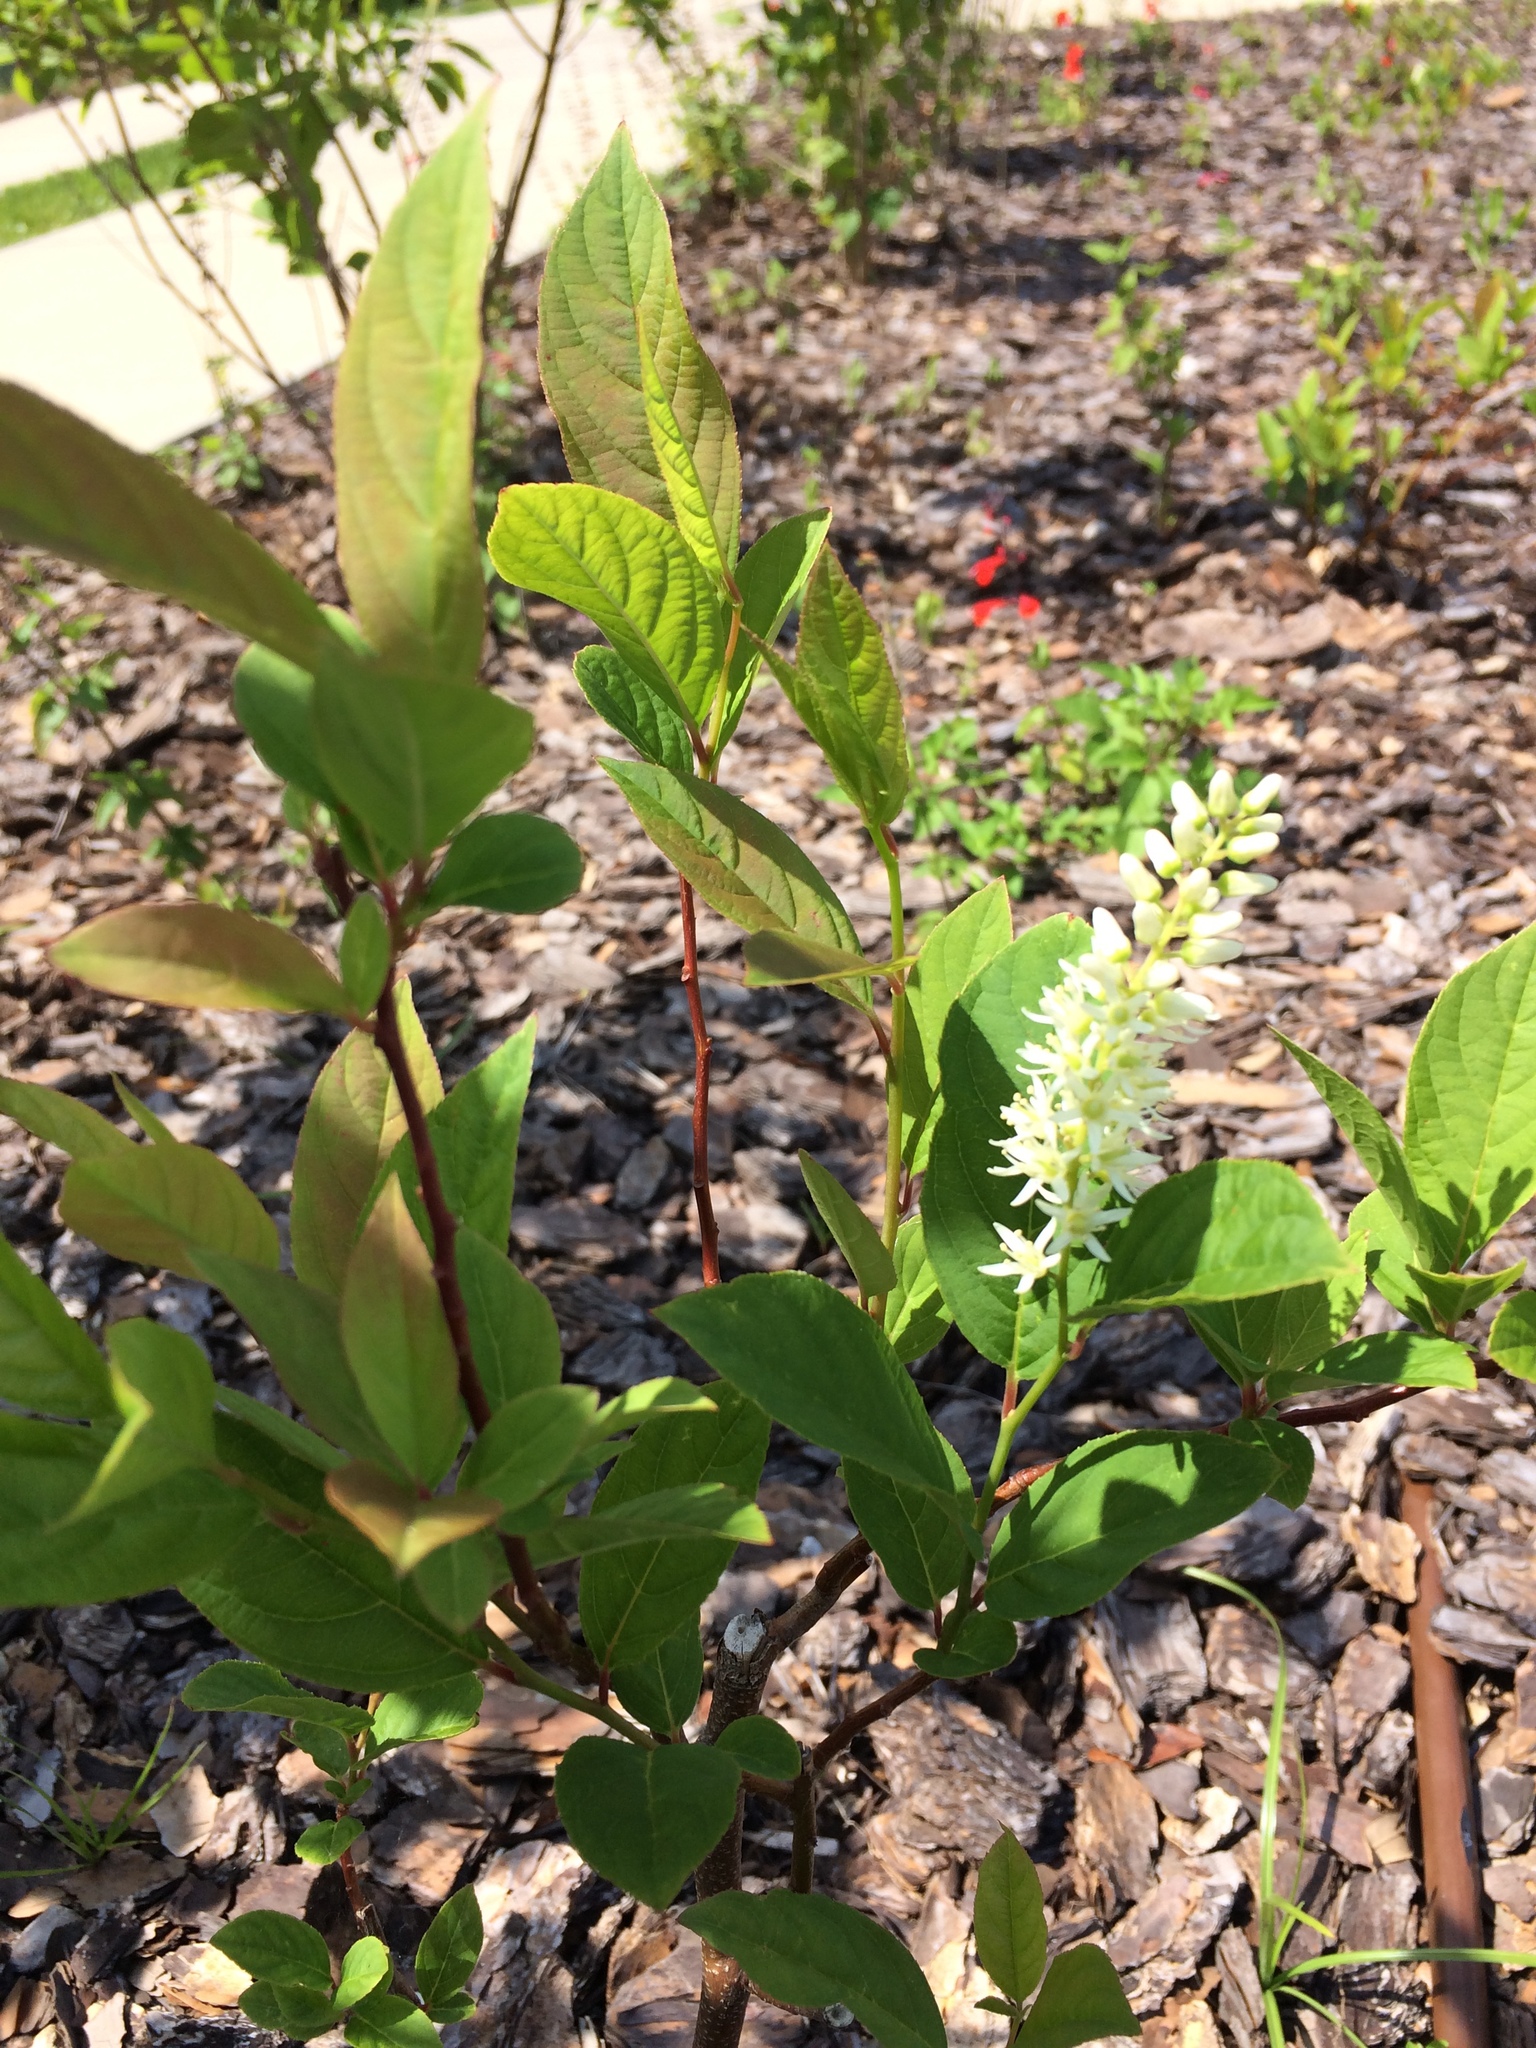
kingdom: Plantae
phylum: Tracheophyta
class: Magnoliopsida
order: Saxifragales
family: Iteaceae
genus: Itea
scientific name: Itea virginica
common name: Sweetspire
